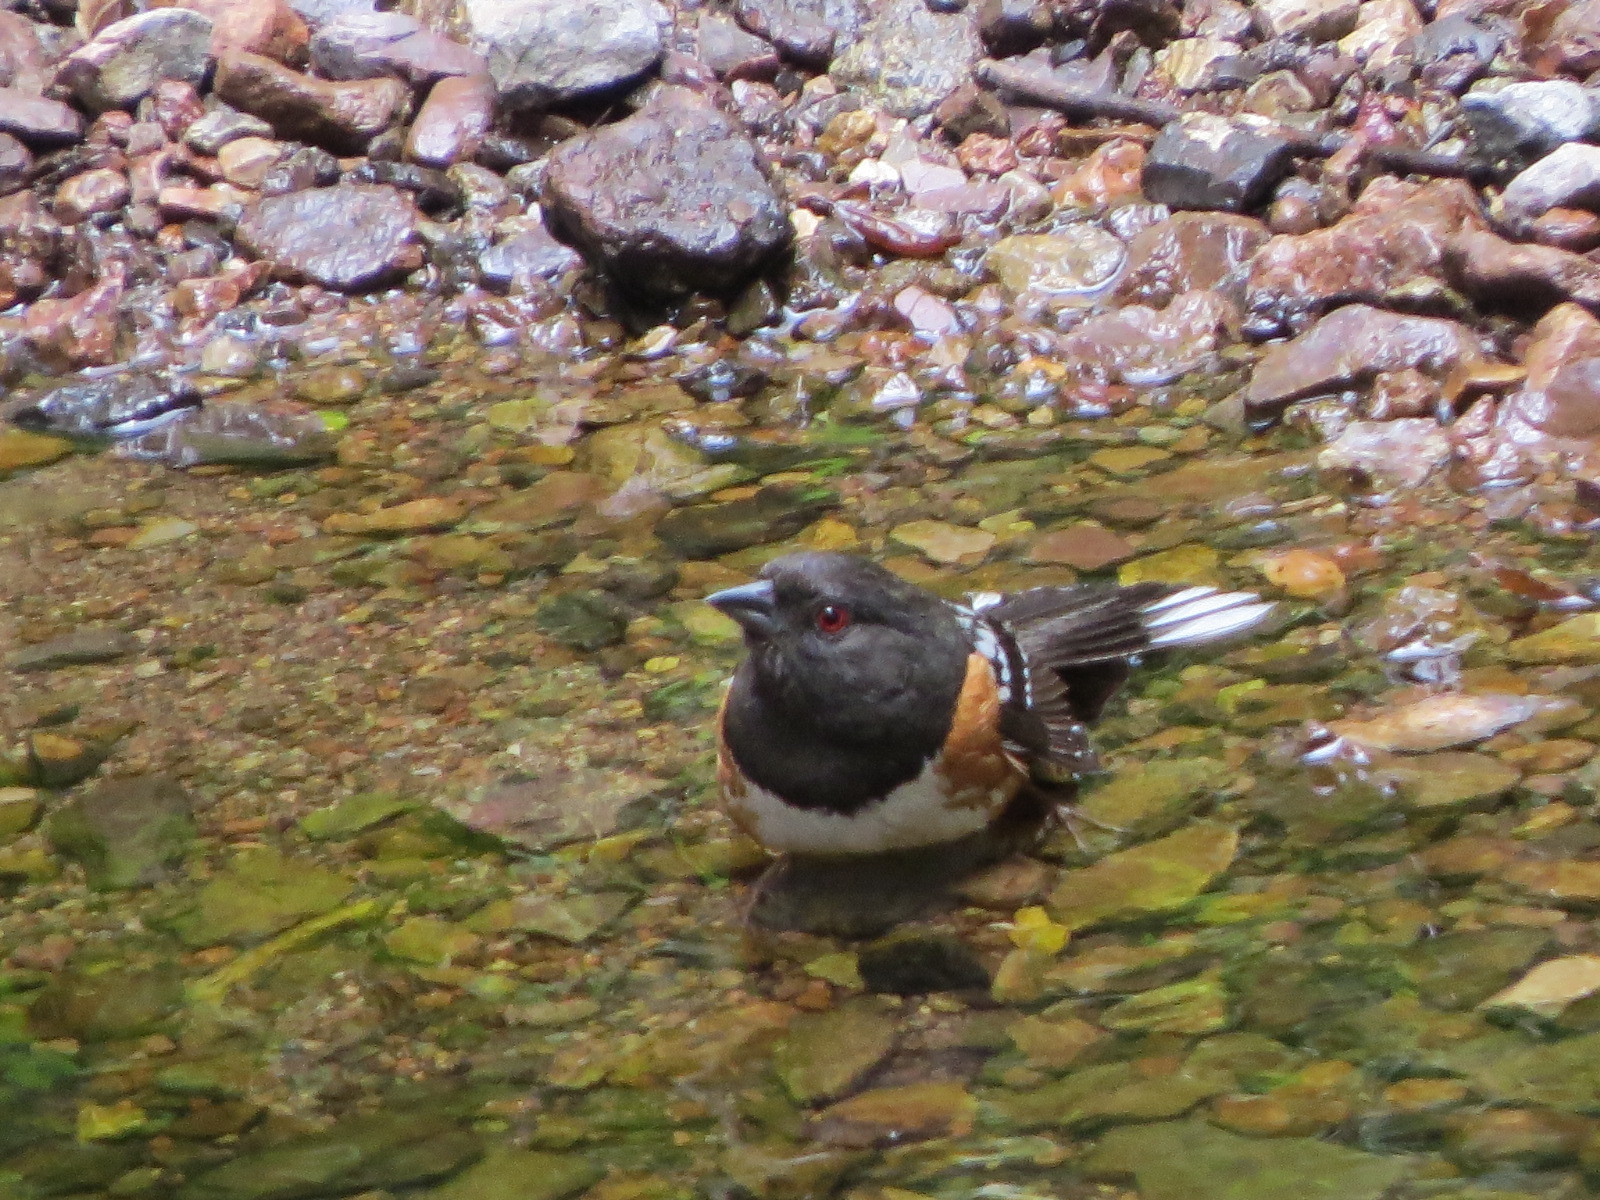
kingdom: Animalia
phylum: Chordata
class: Aves
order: Passeriformes
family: Passerellidae
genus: Pipilo
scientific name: Pipilo maculatus
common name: Spotted towhee
